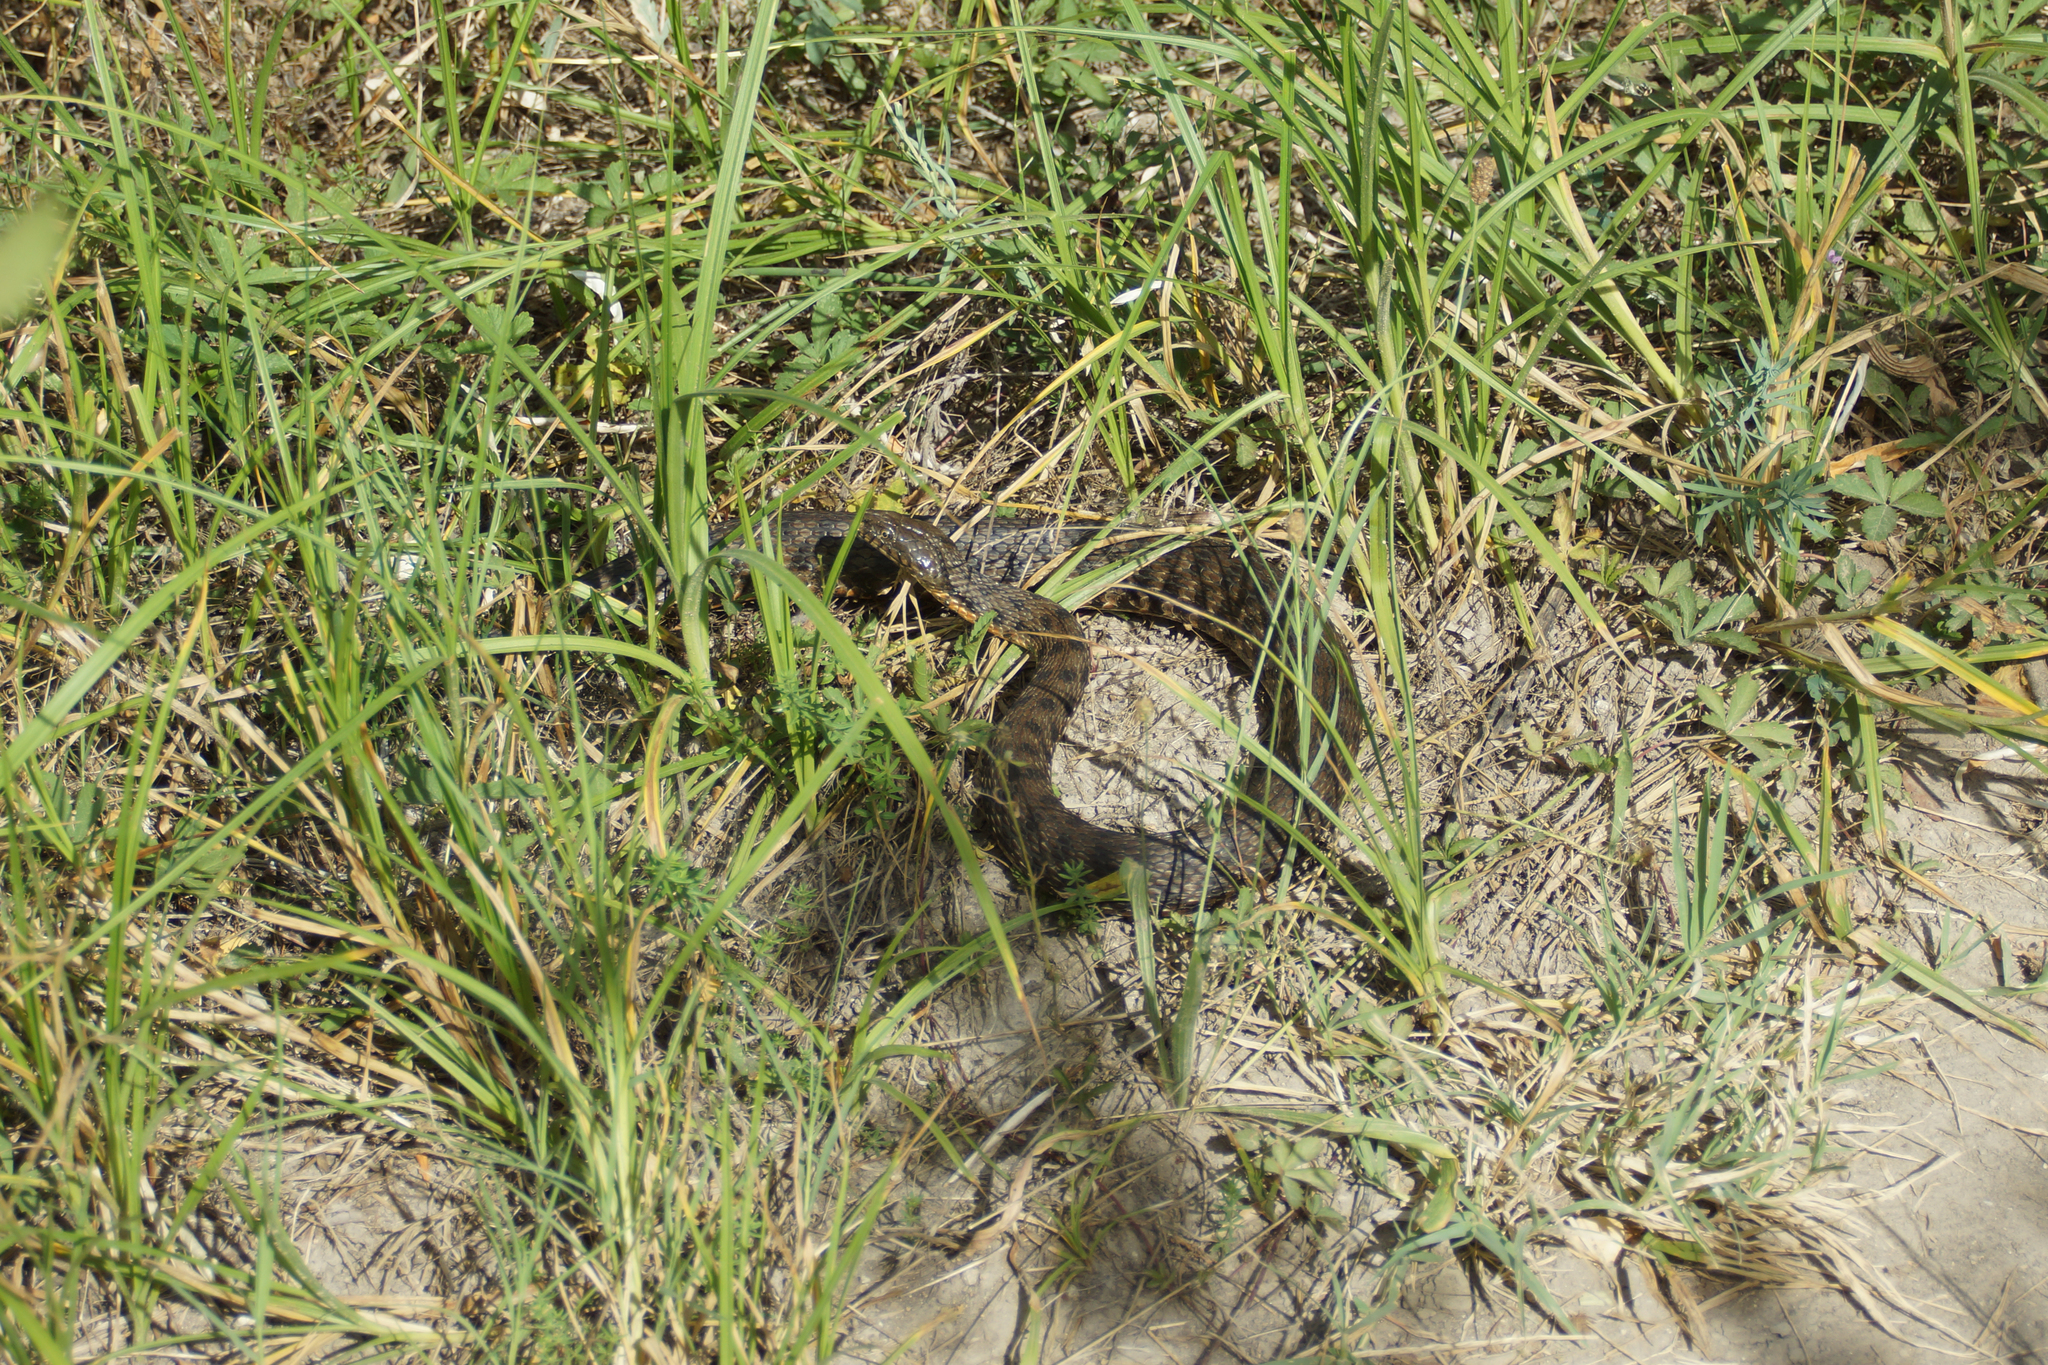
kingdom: Animalia
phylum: Chordata
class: Squamata
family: Colubridae
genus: Natrix
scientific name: Natrix tessellata
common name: Dice snake
